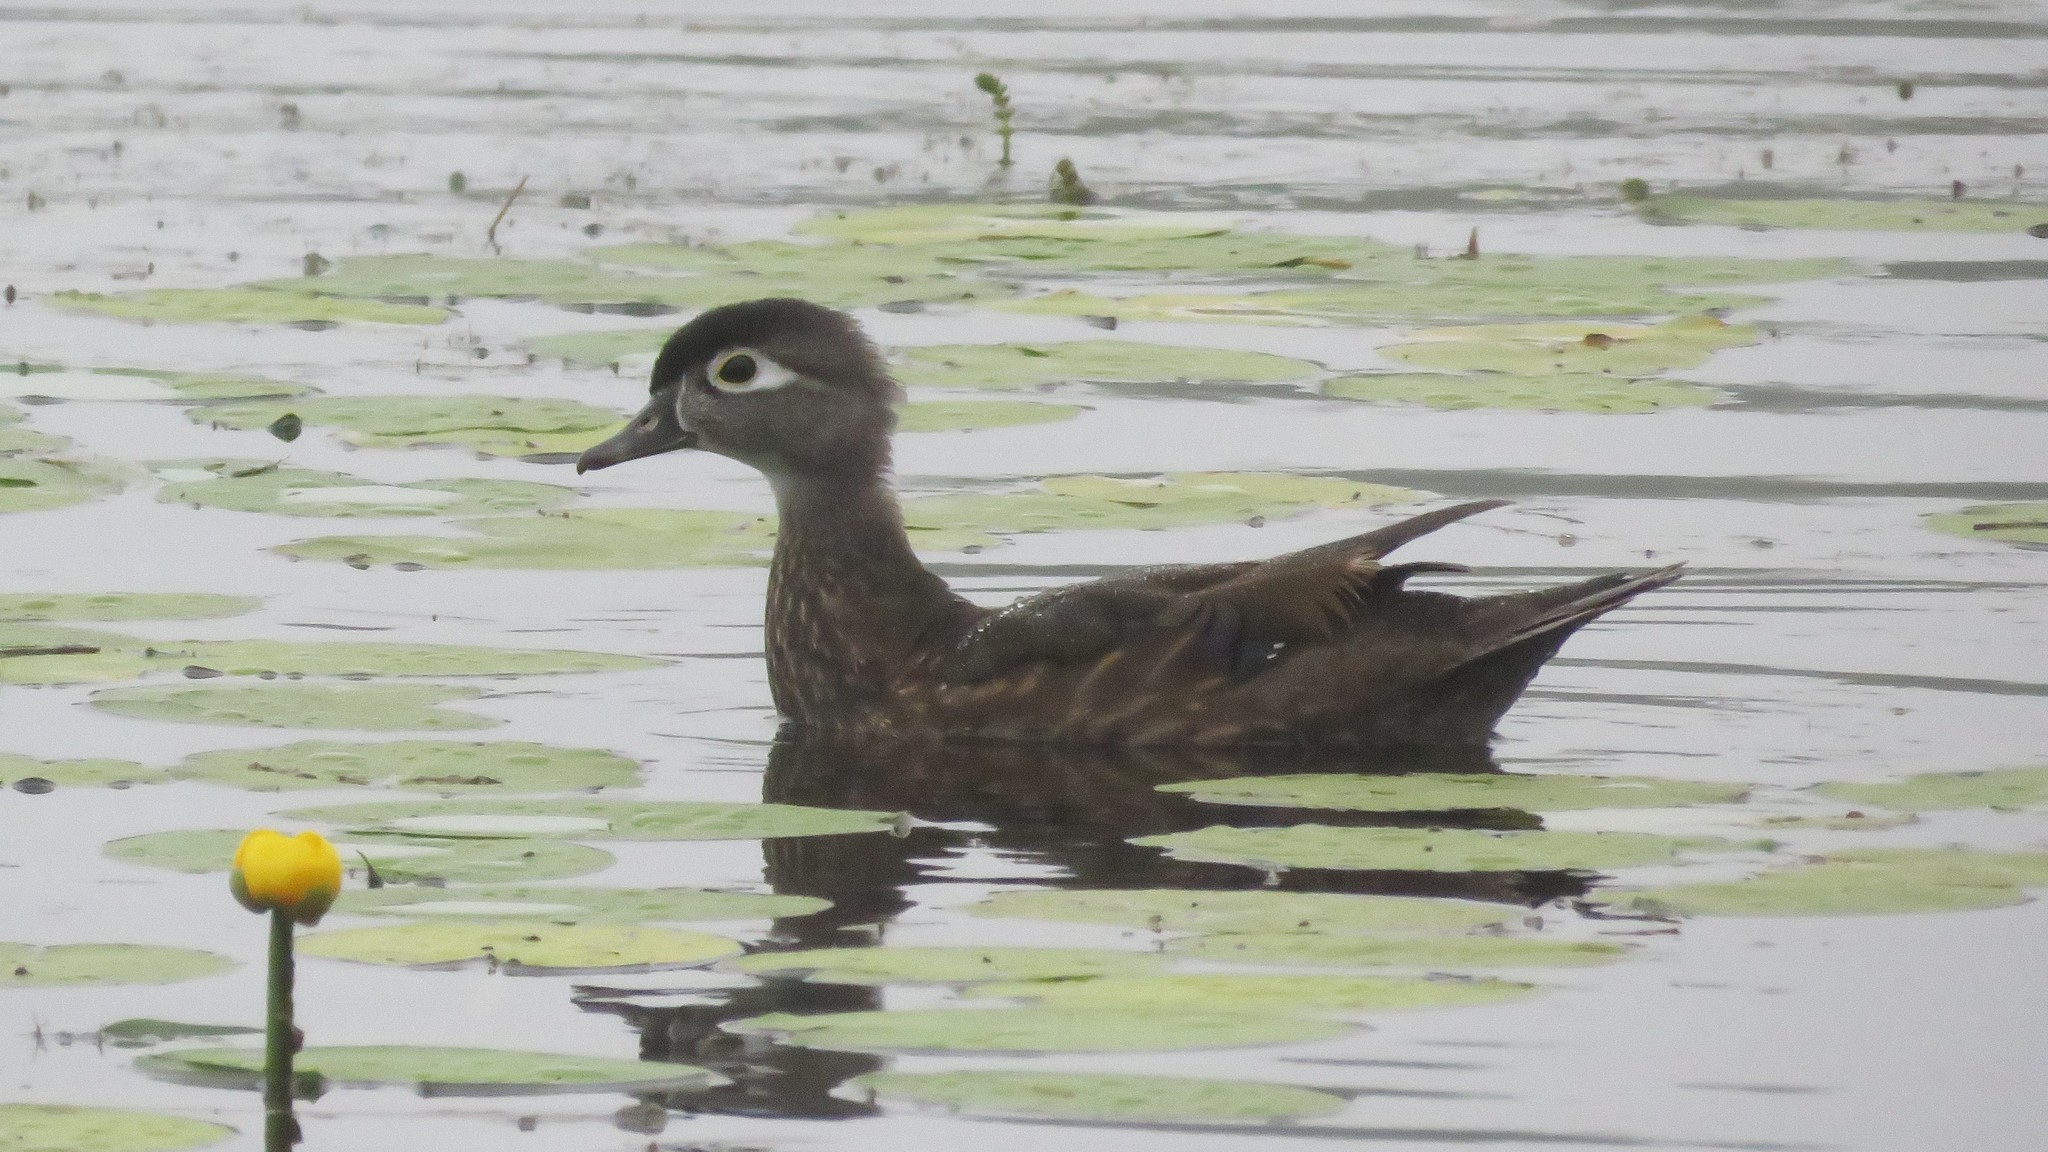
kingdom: Animalia
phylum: Chordata
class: Aves
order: Anseriformes
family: Anatidae
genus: Aix
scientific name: Aix sponsa
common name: Wood duck
